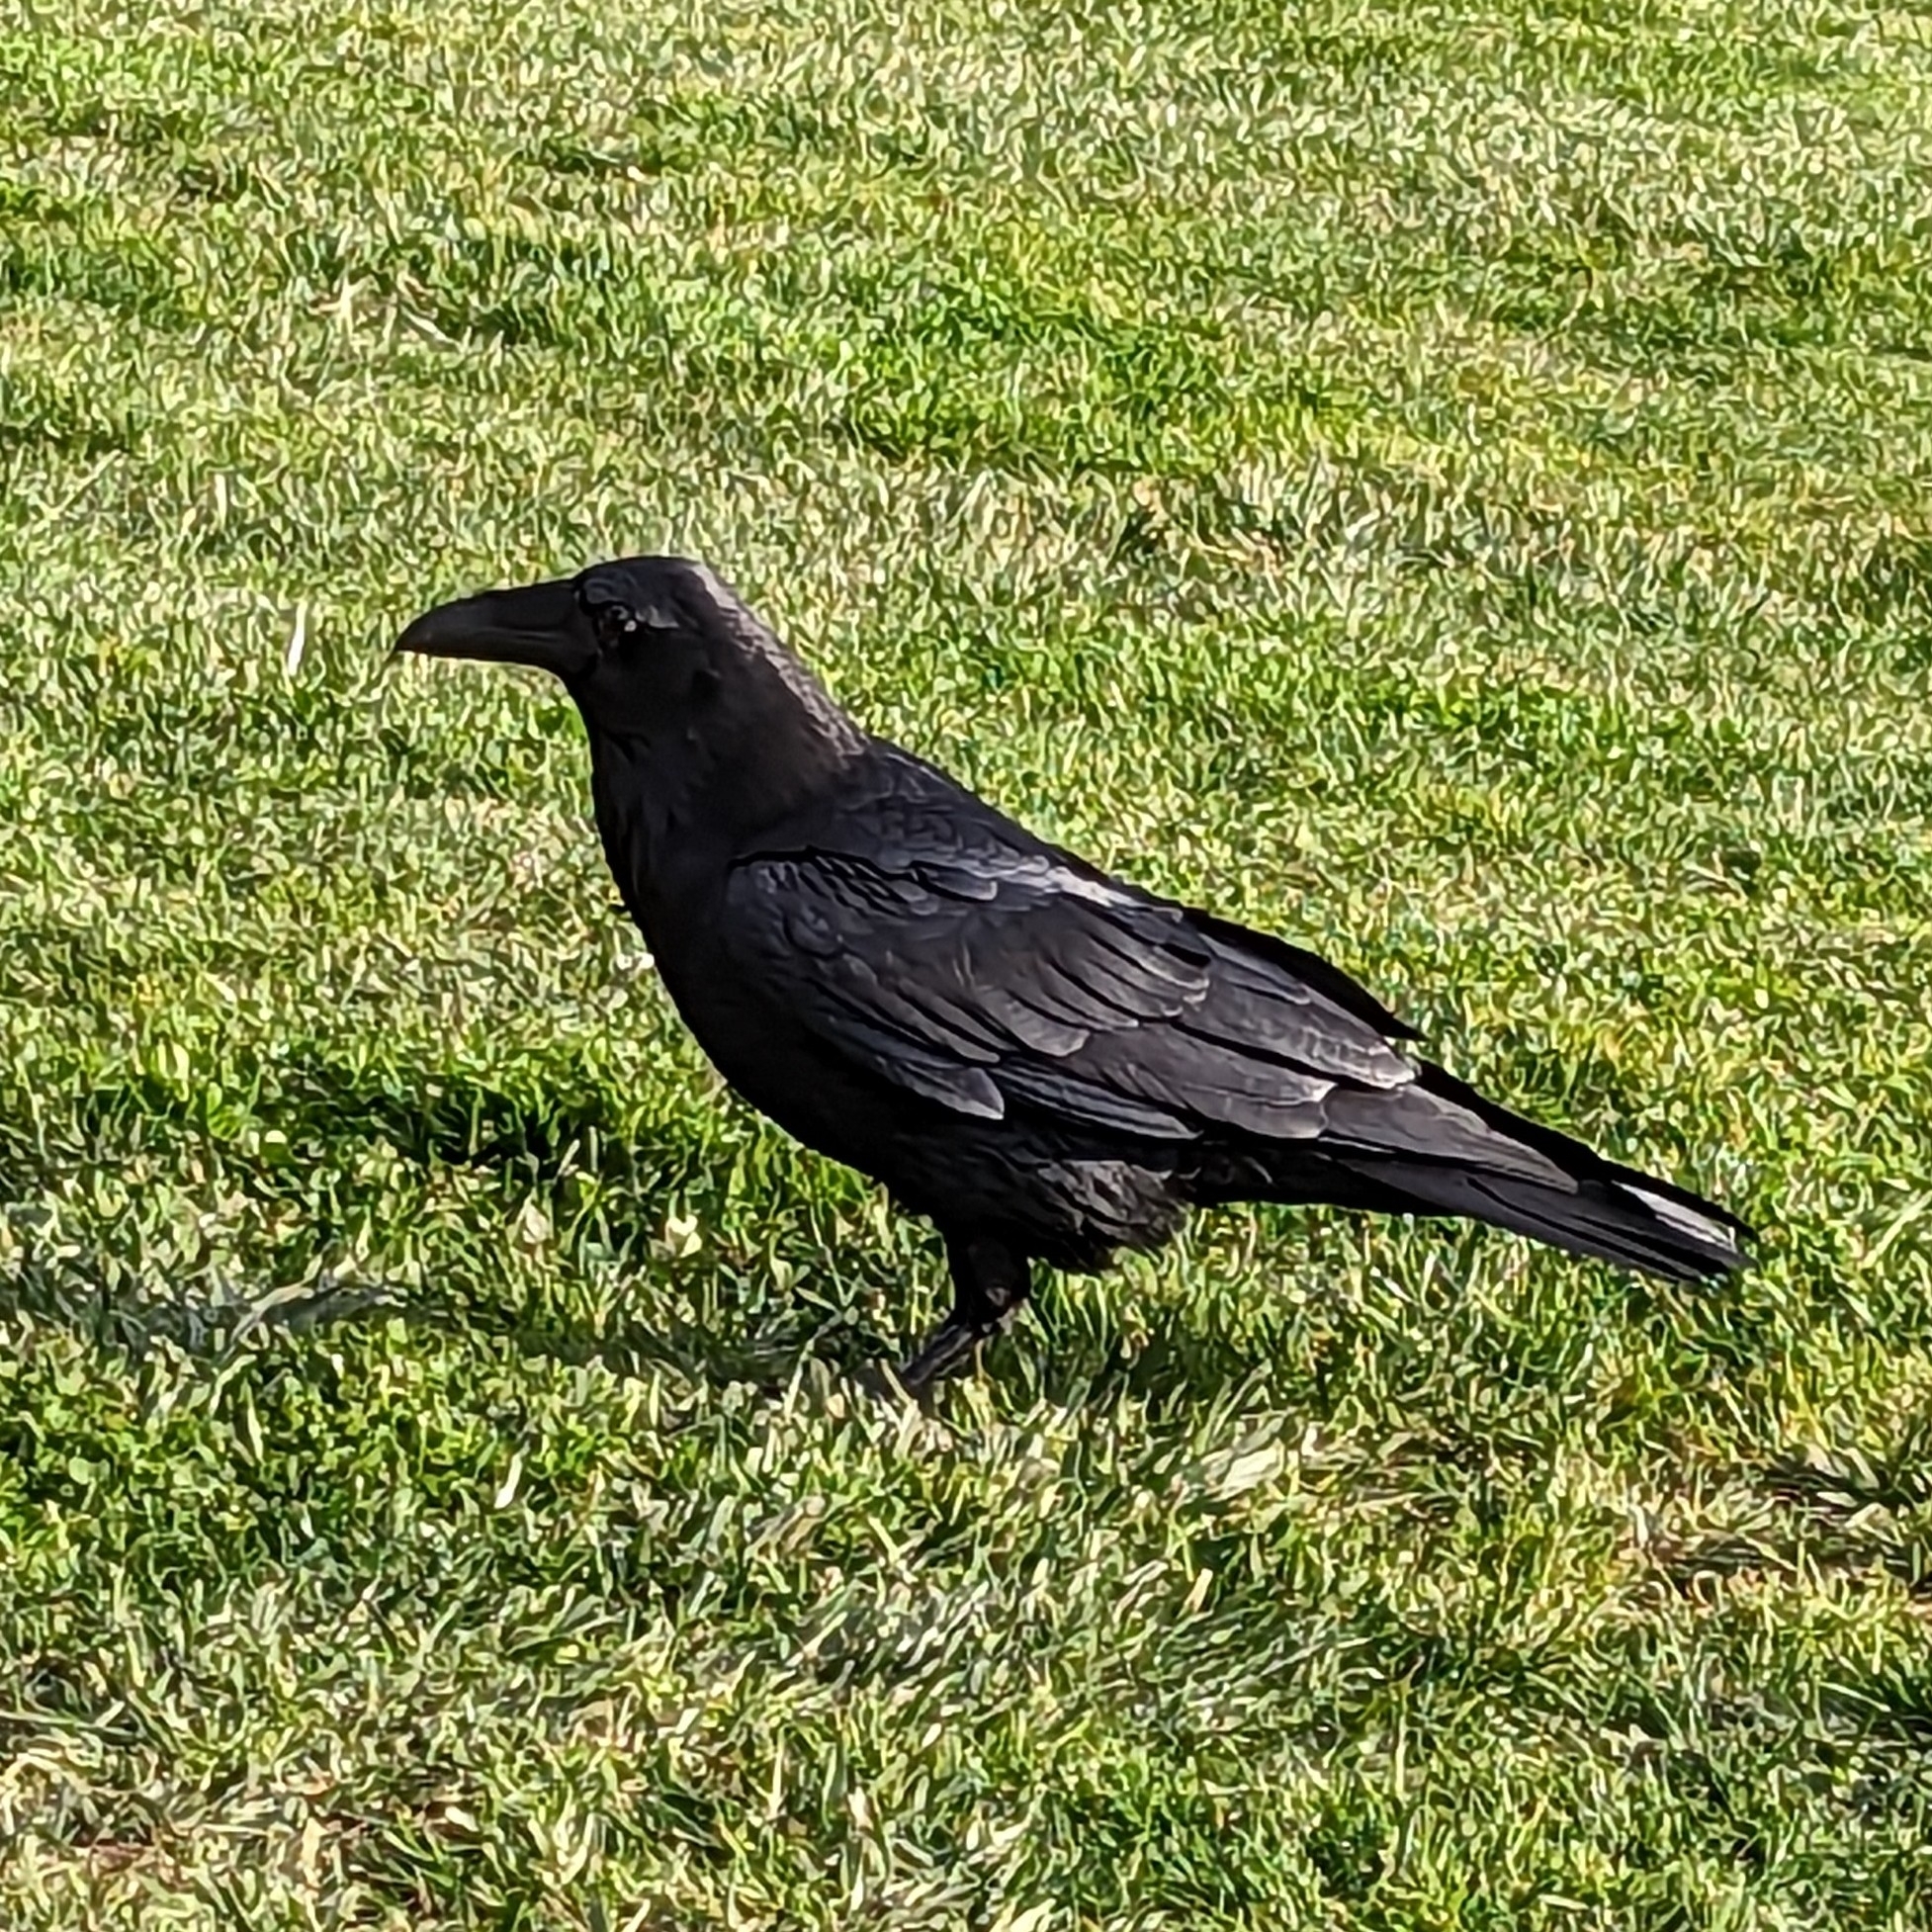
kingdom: Animalia
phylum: Chordata
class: Aves
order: Passeriformes
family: Corvidae
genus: Corvus
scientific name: Corvus corax
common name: Common raven
